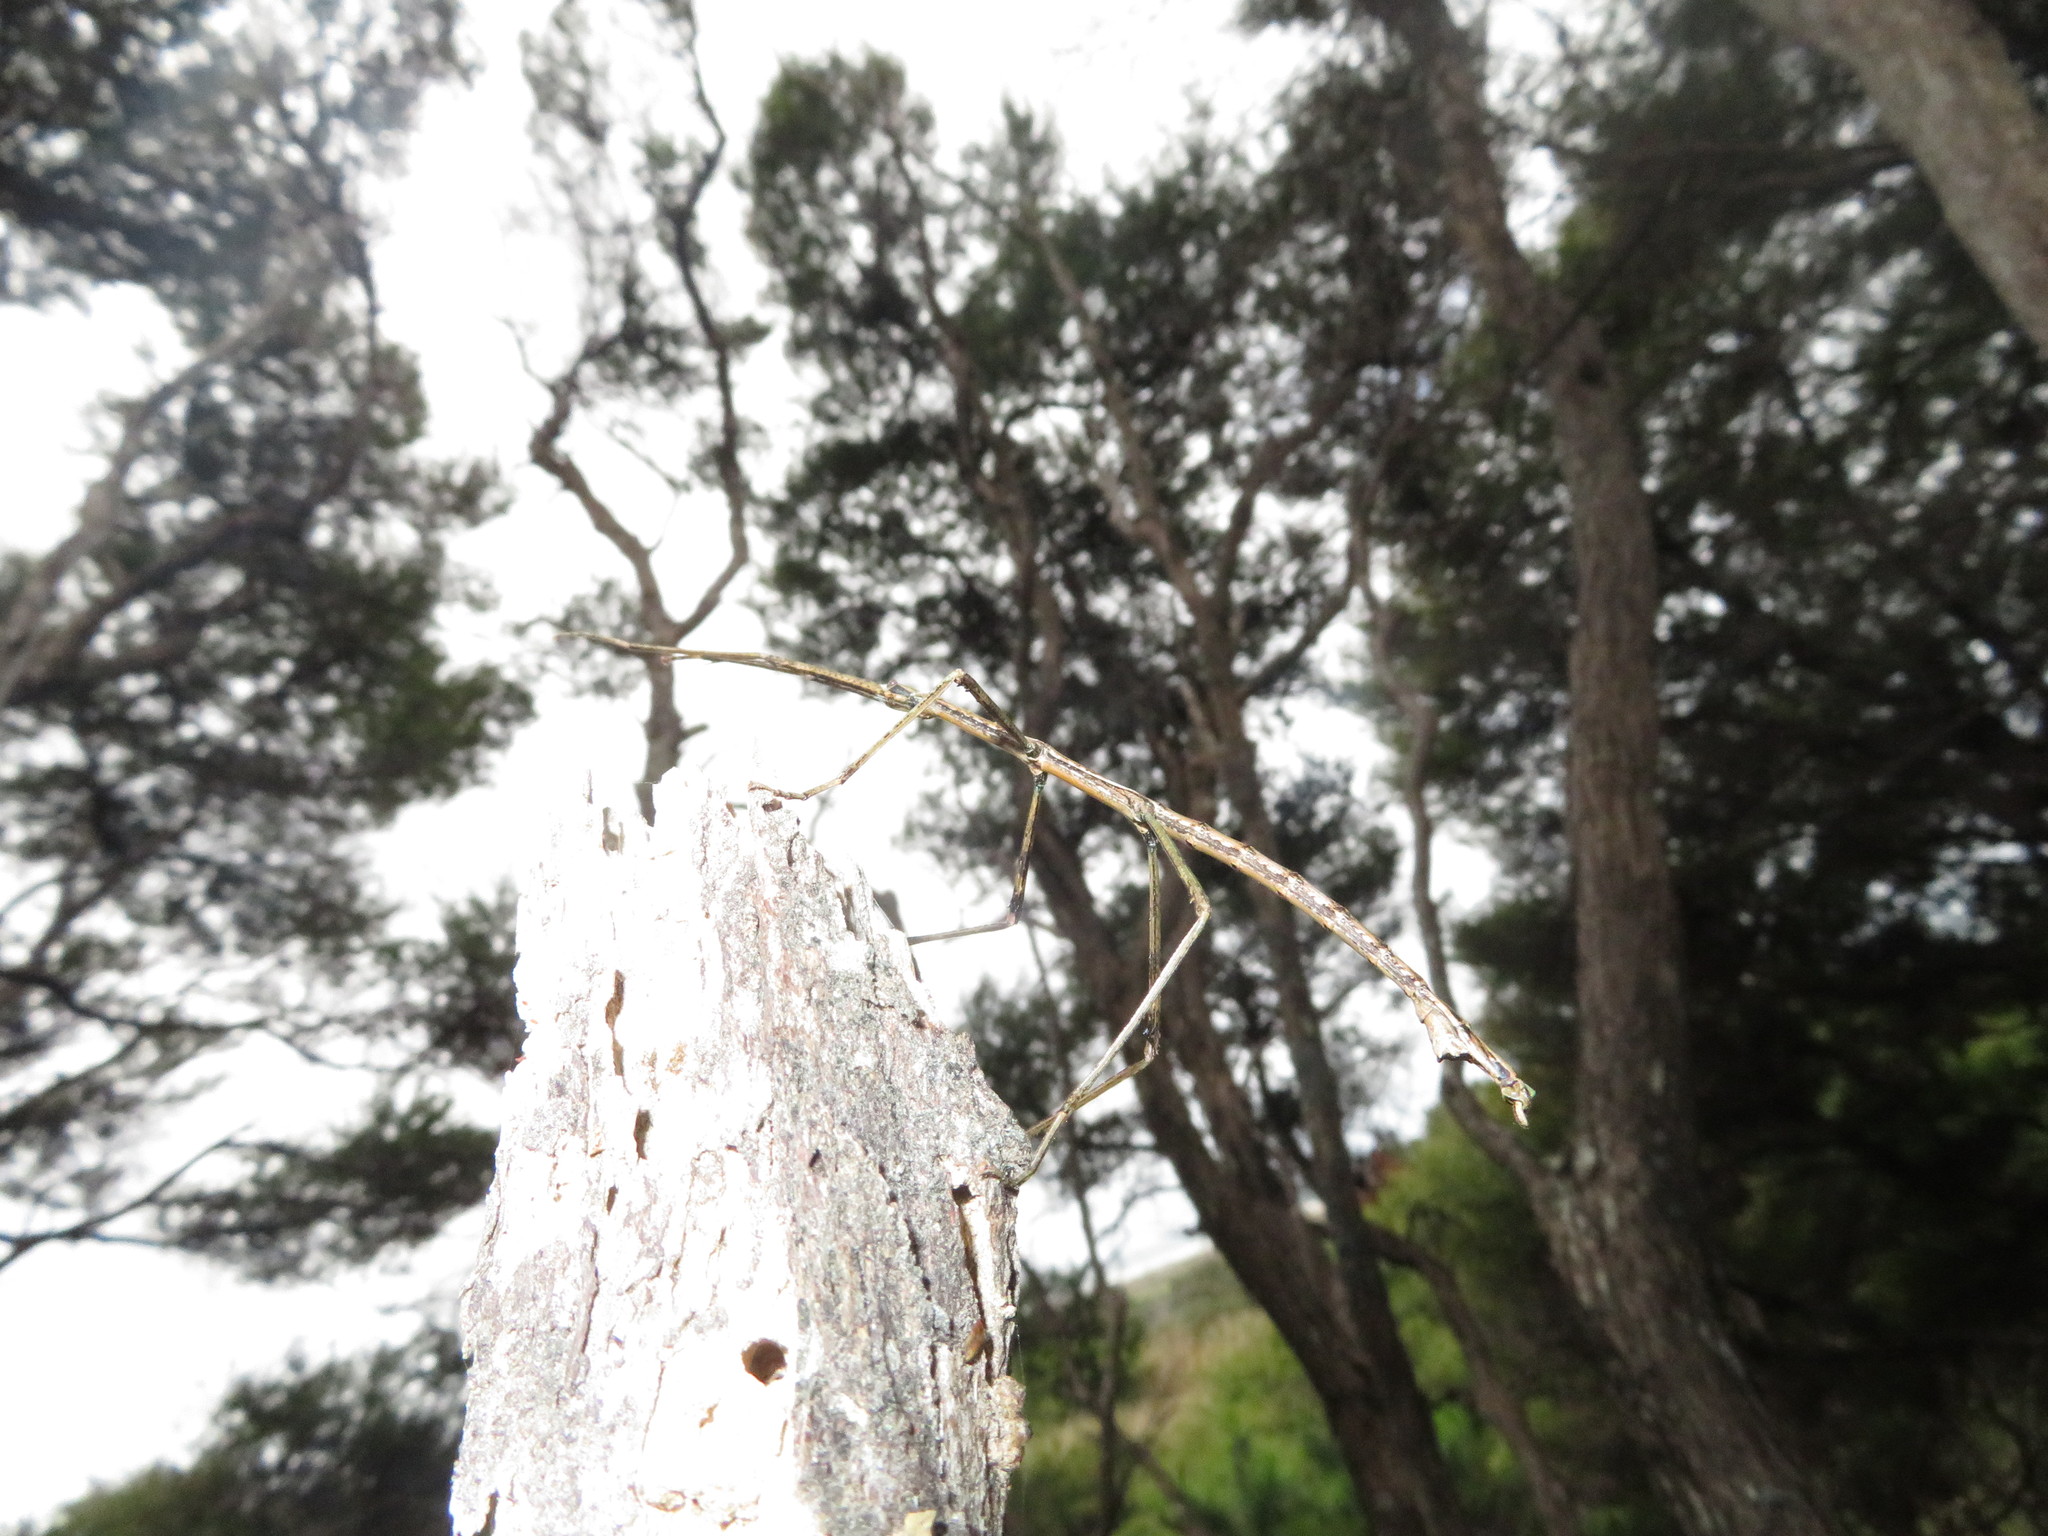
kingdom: Animalia
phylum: Arthropoda
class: Insecta
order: Phasmida
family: Phasmatidae
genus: Clitarchus
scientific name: Clitarchus hookeri
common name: Smooth stick insect
